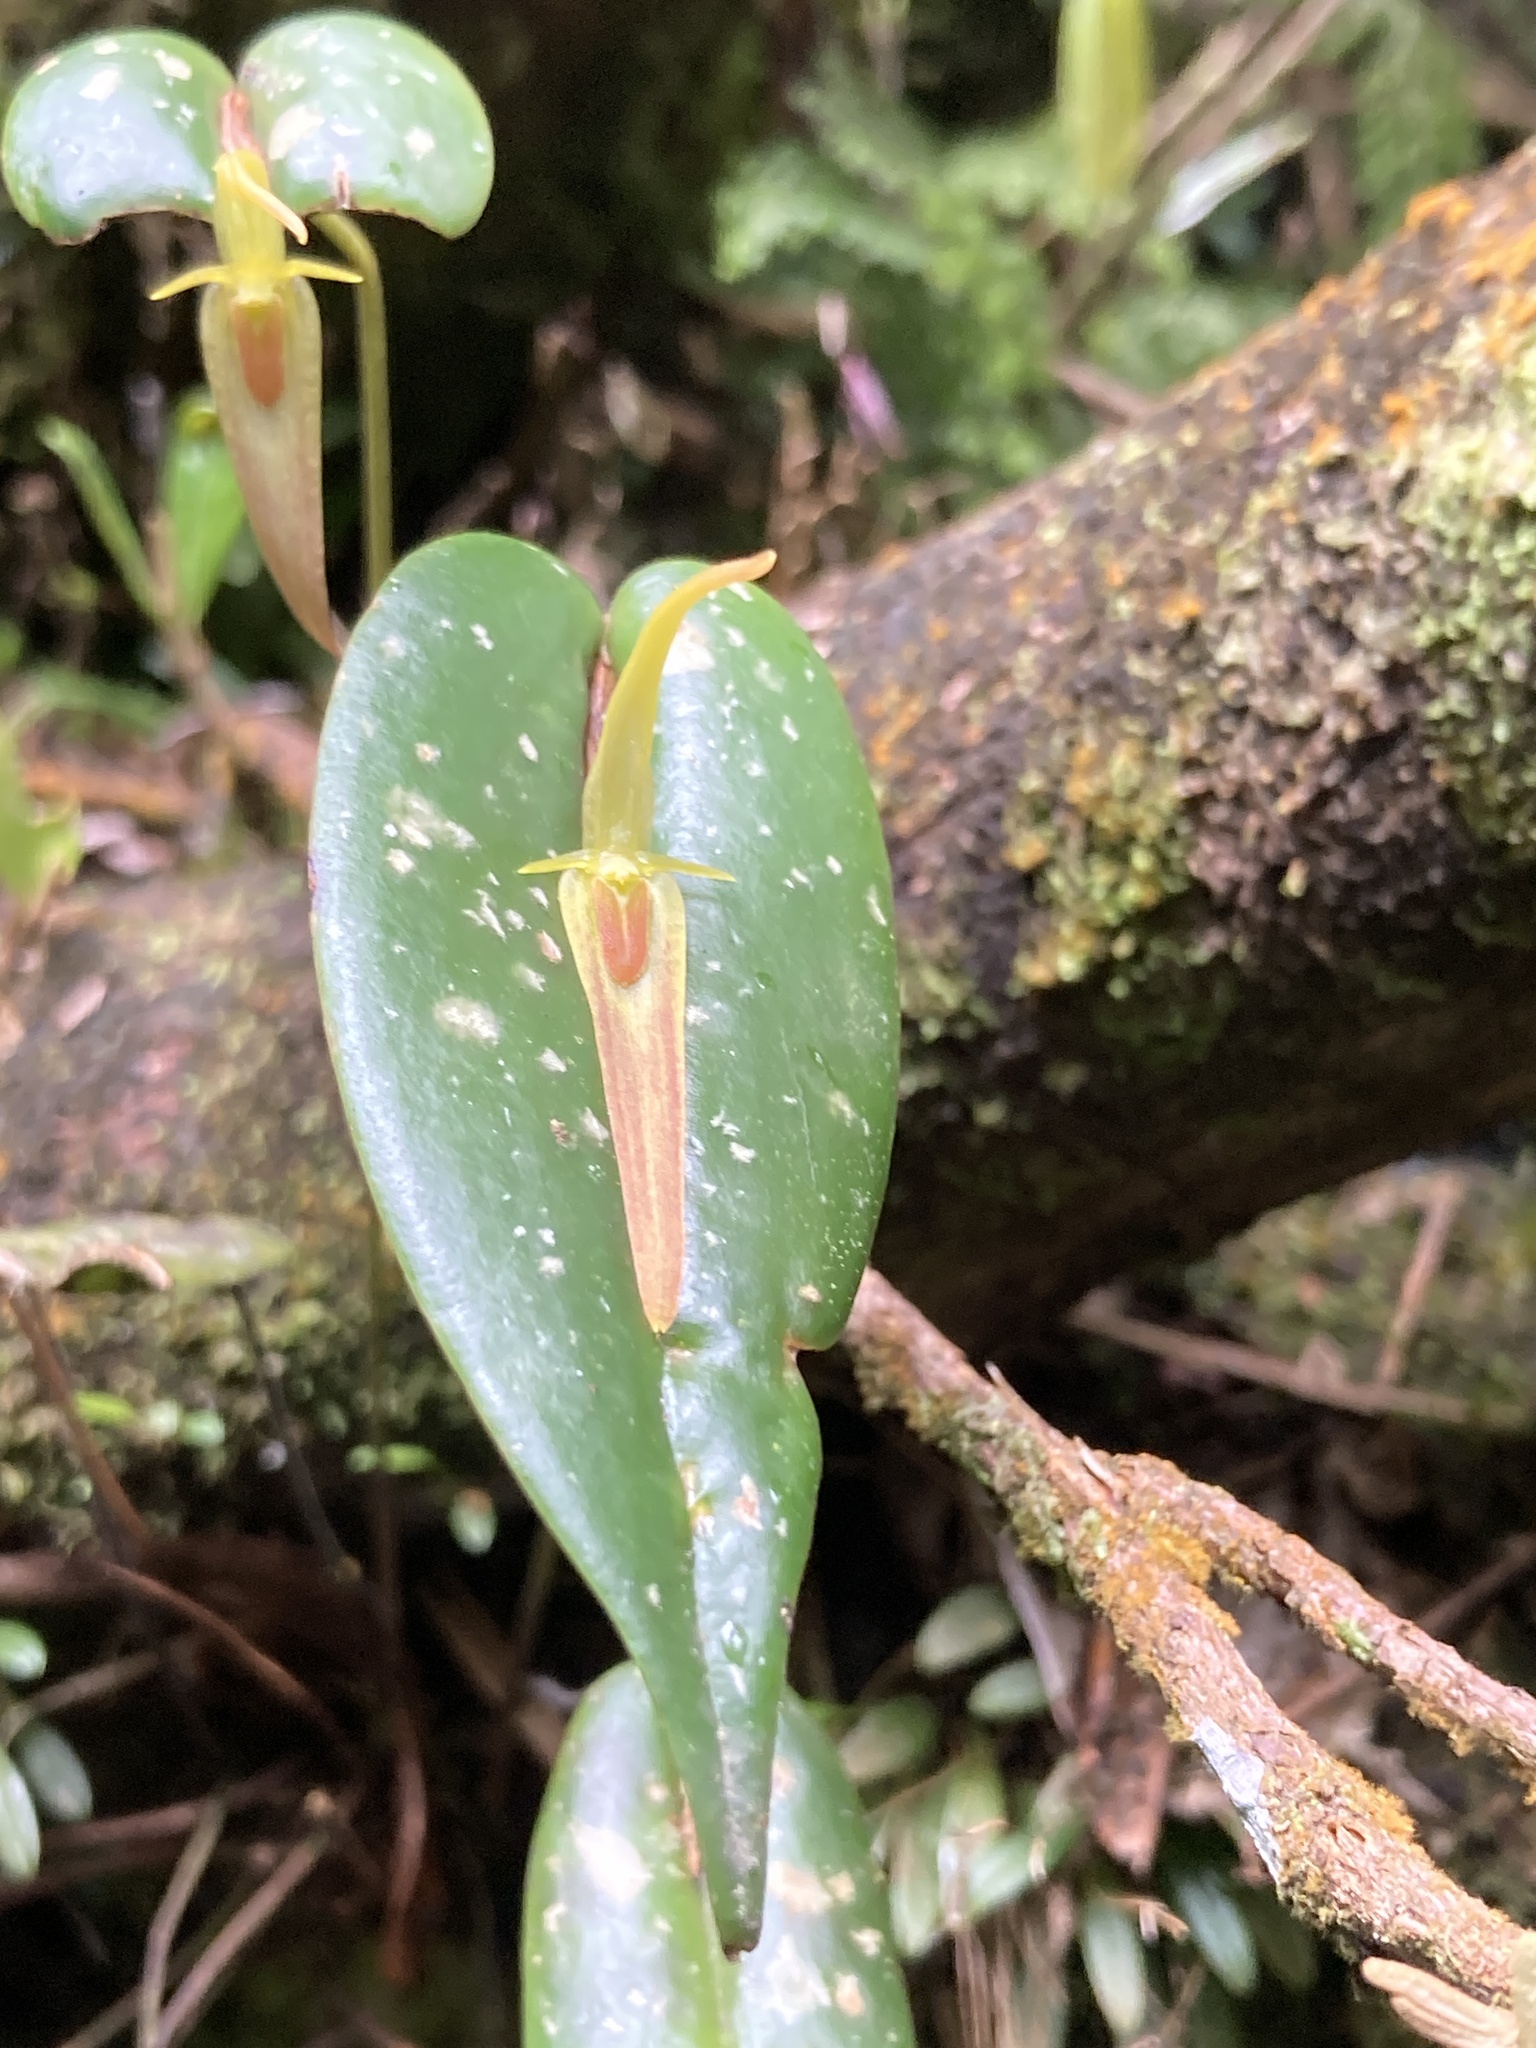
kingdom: Plantae
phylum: Tracheophyta
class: Liliopsida
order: Asparagales
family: Orchidaceae
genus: Pleurothallis
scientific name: Pleurothallis microcardia
